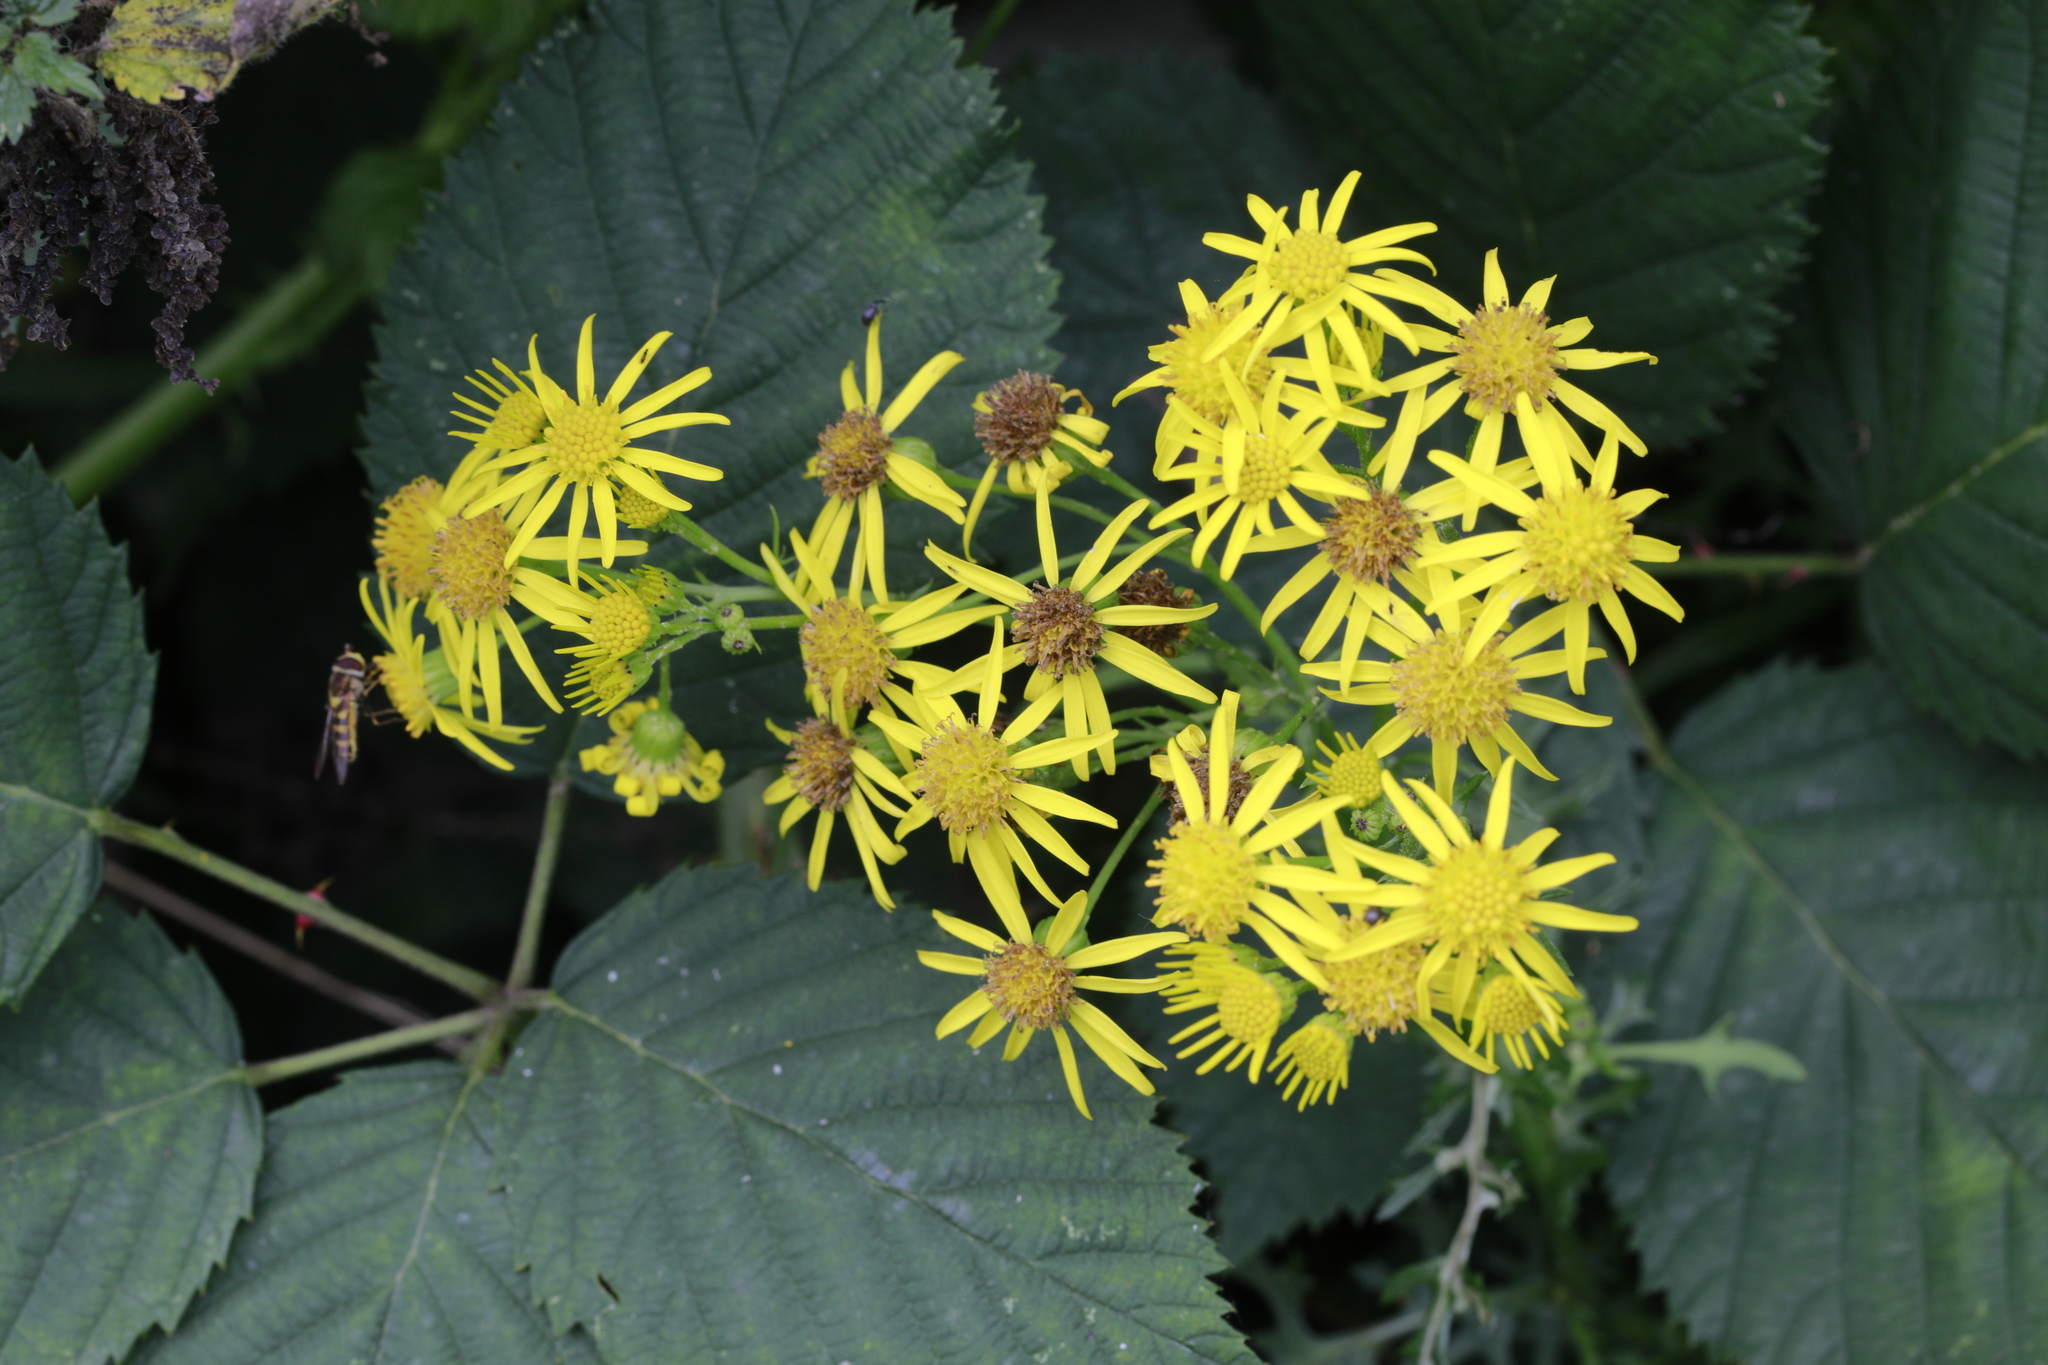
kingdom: Plantae
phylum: Tracheophyta
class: Magnoliopsida
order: Asterales
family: Asteraceae
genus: Jacobaea
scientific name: Jacobaea vulgaris
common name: Stinking willie
